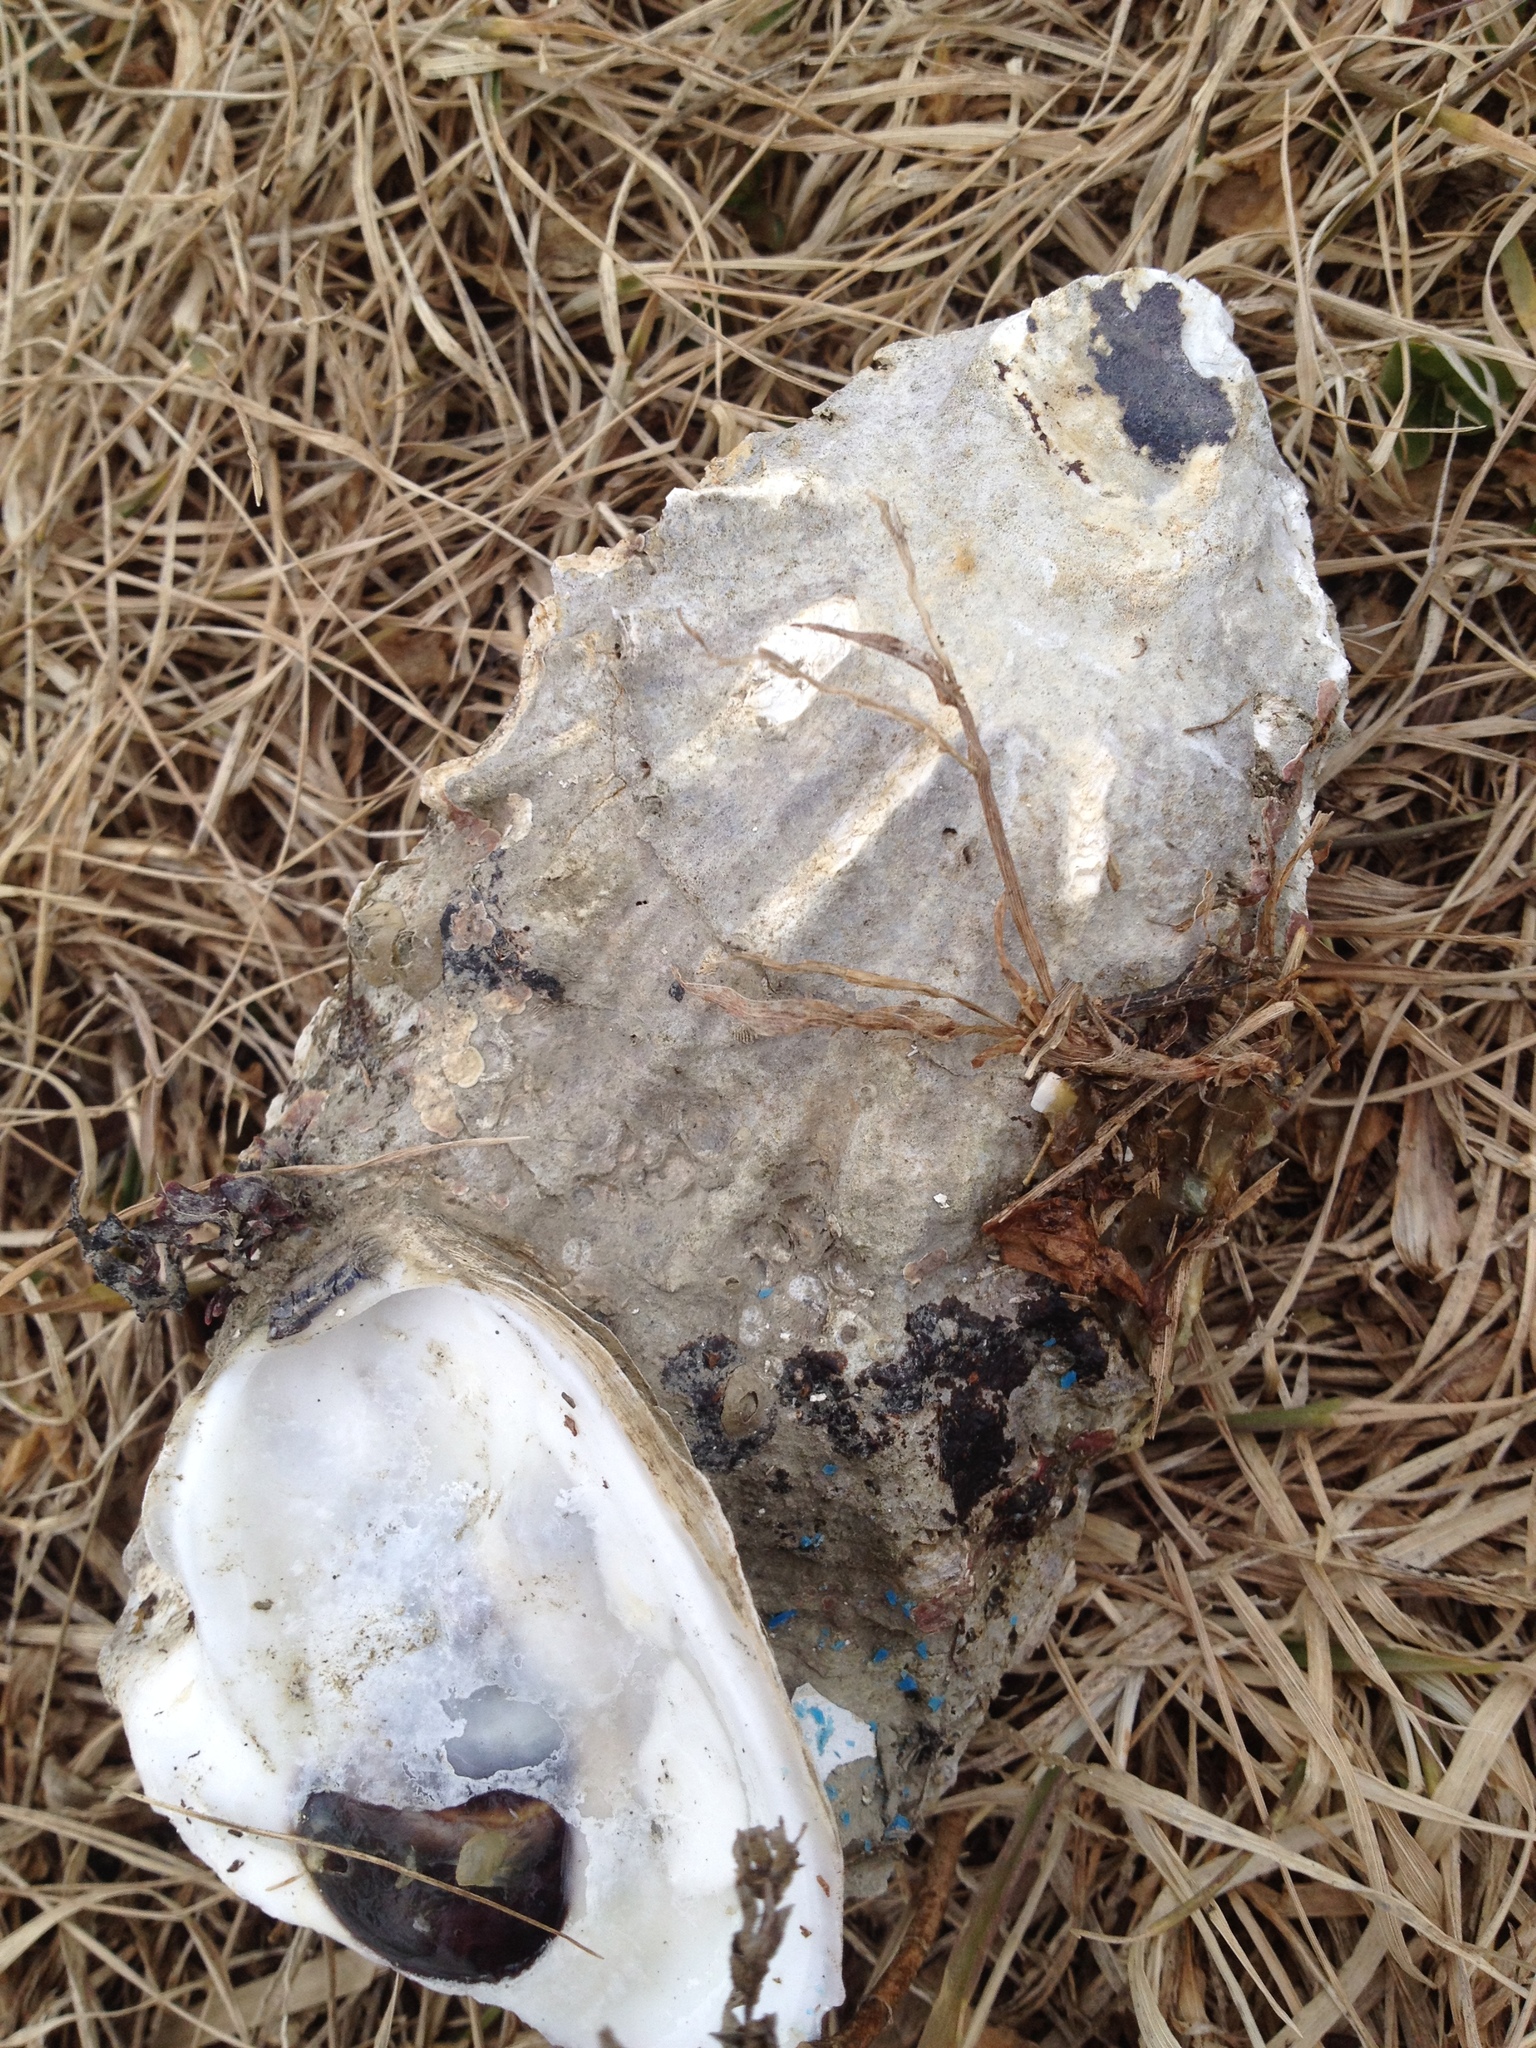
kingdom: Animalia
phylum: Mollusca
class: Bivalvia
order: Ostreida
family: Ostreidae
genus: Crassostrea
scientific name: Crassostrea virginica
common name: American oyster
